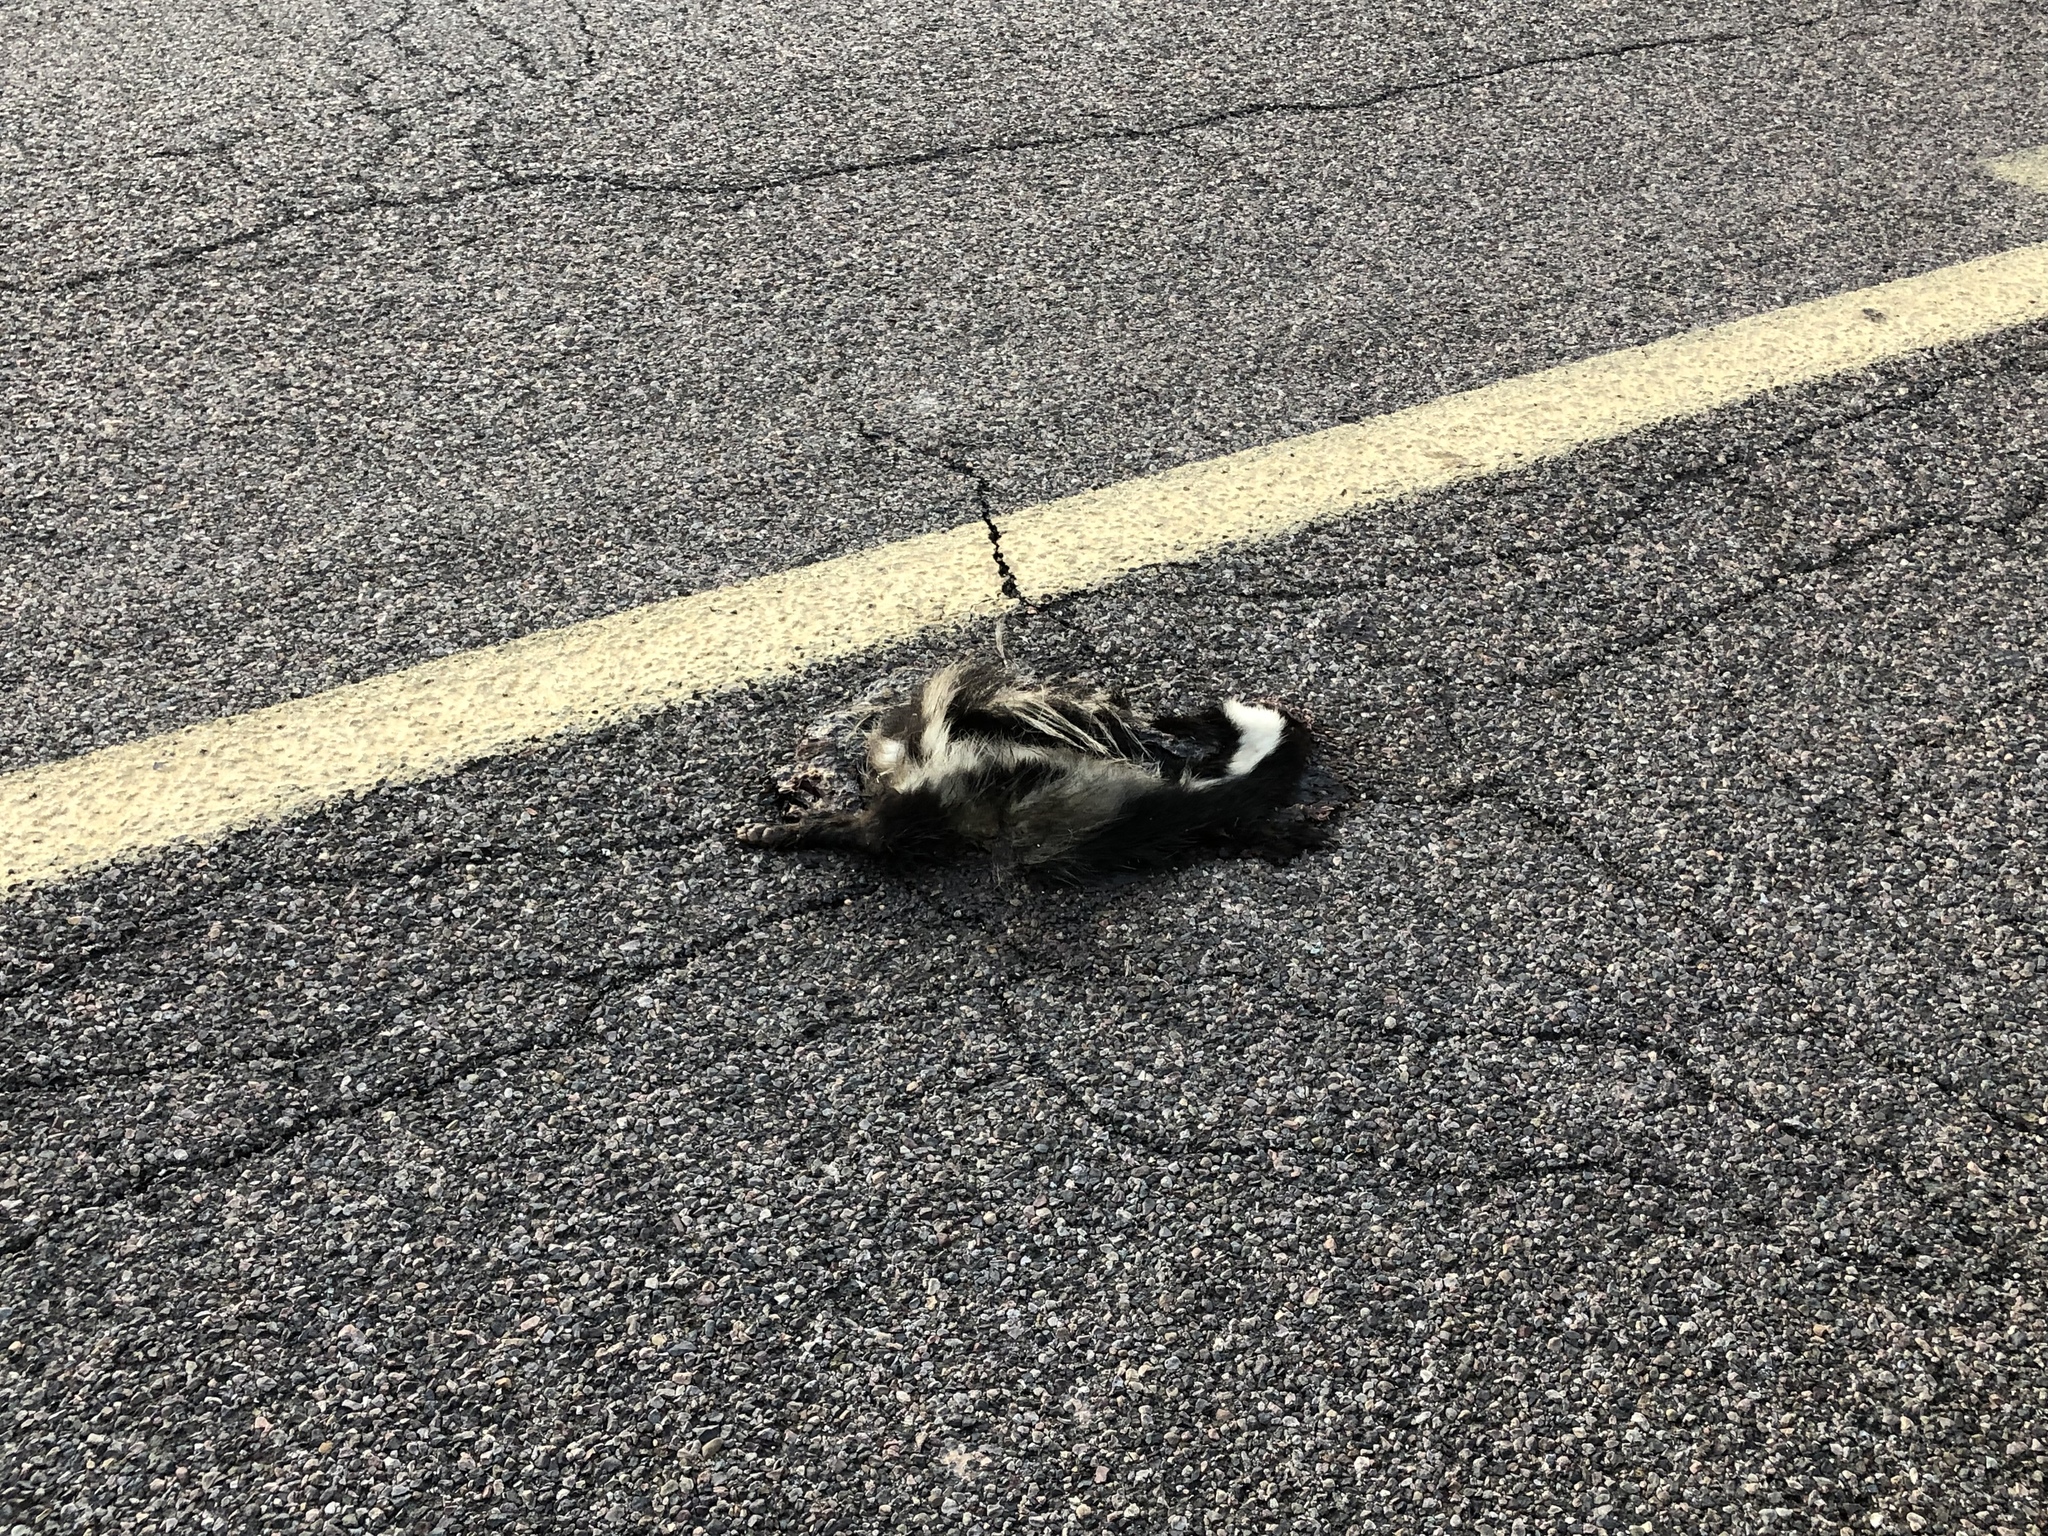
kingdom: Animalia
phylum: Chordata
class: Mammalia
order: Carnivora
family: Mephitidae
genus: Mephitis
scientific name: Mephitis mephitis
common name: Striped skunk
